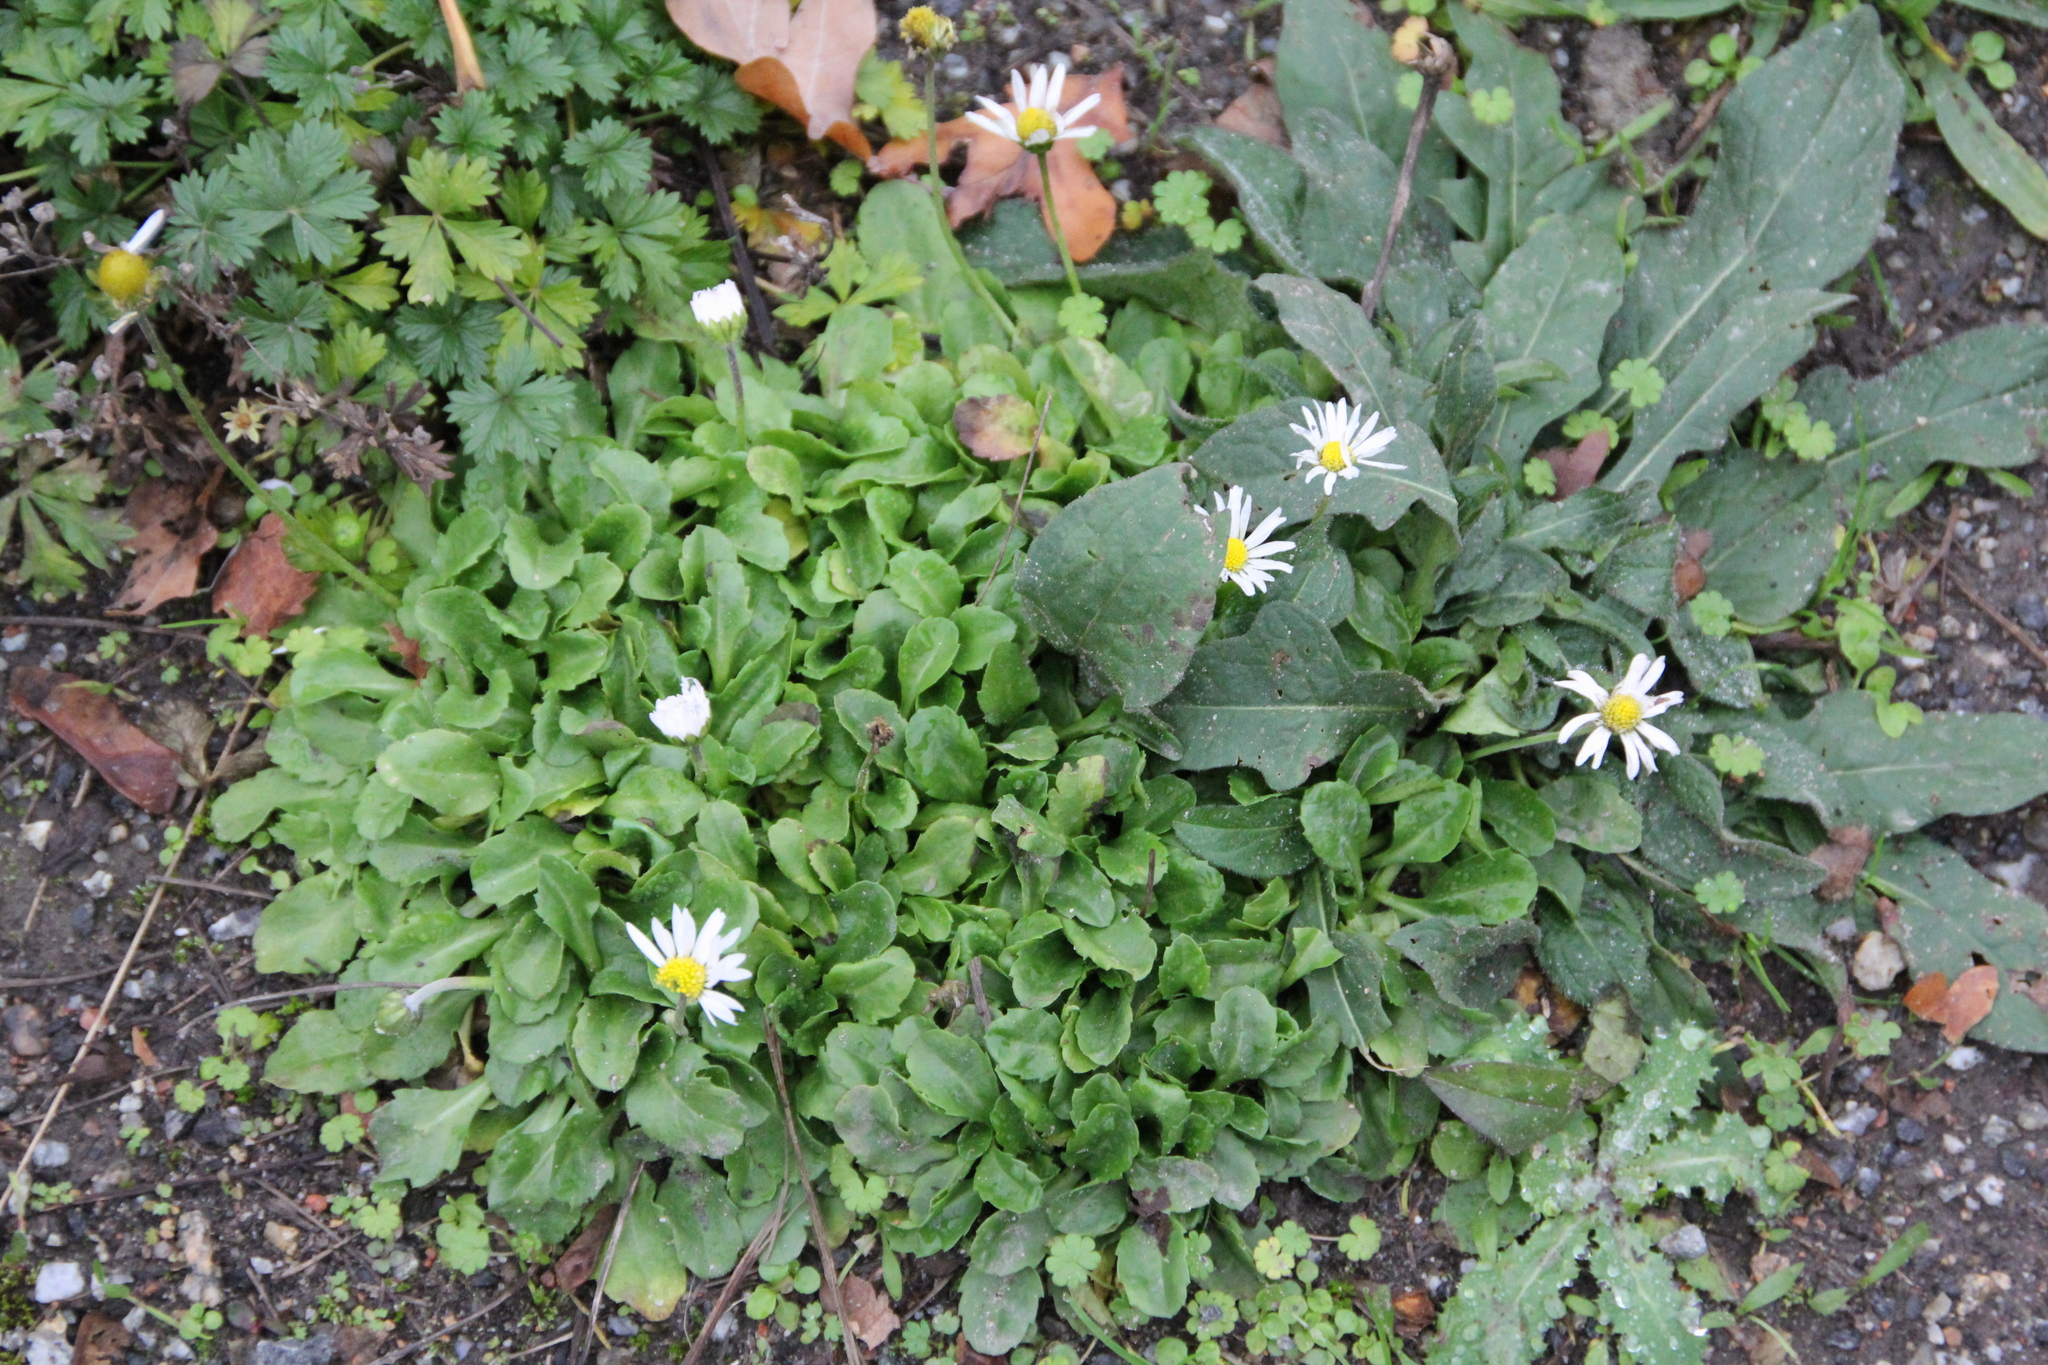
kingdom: Plantae
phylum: Tracheophyta
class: Magnoliopsida
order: Asterales
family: Asteraceae
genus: Bellis
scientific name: Bellis perennis
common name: Lawndaisy
